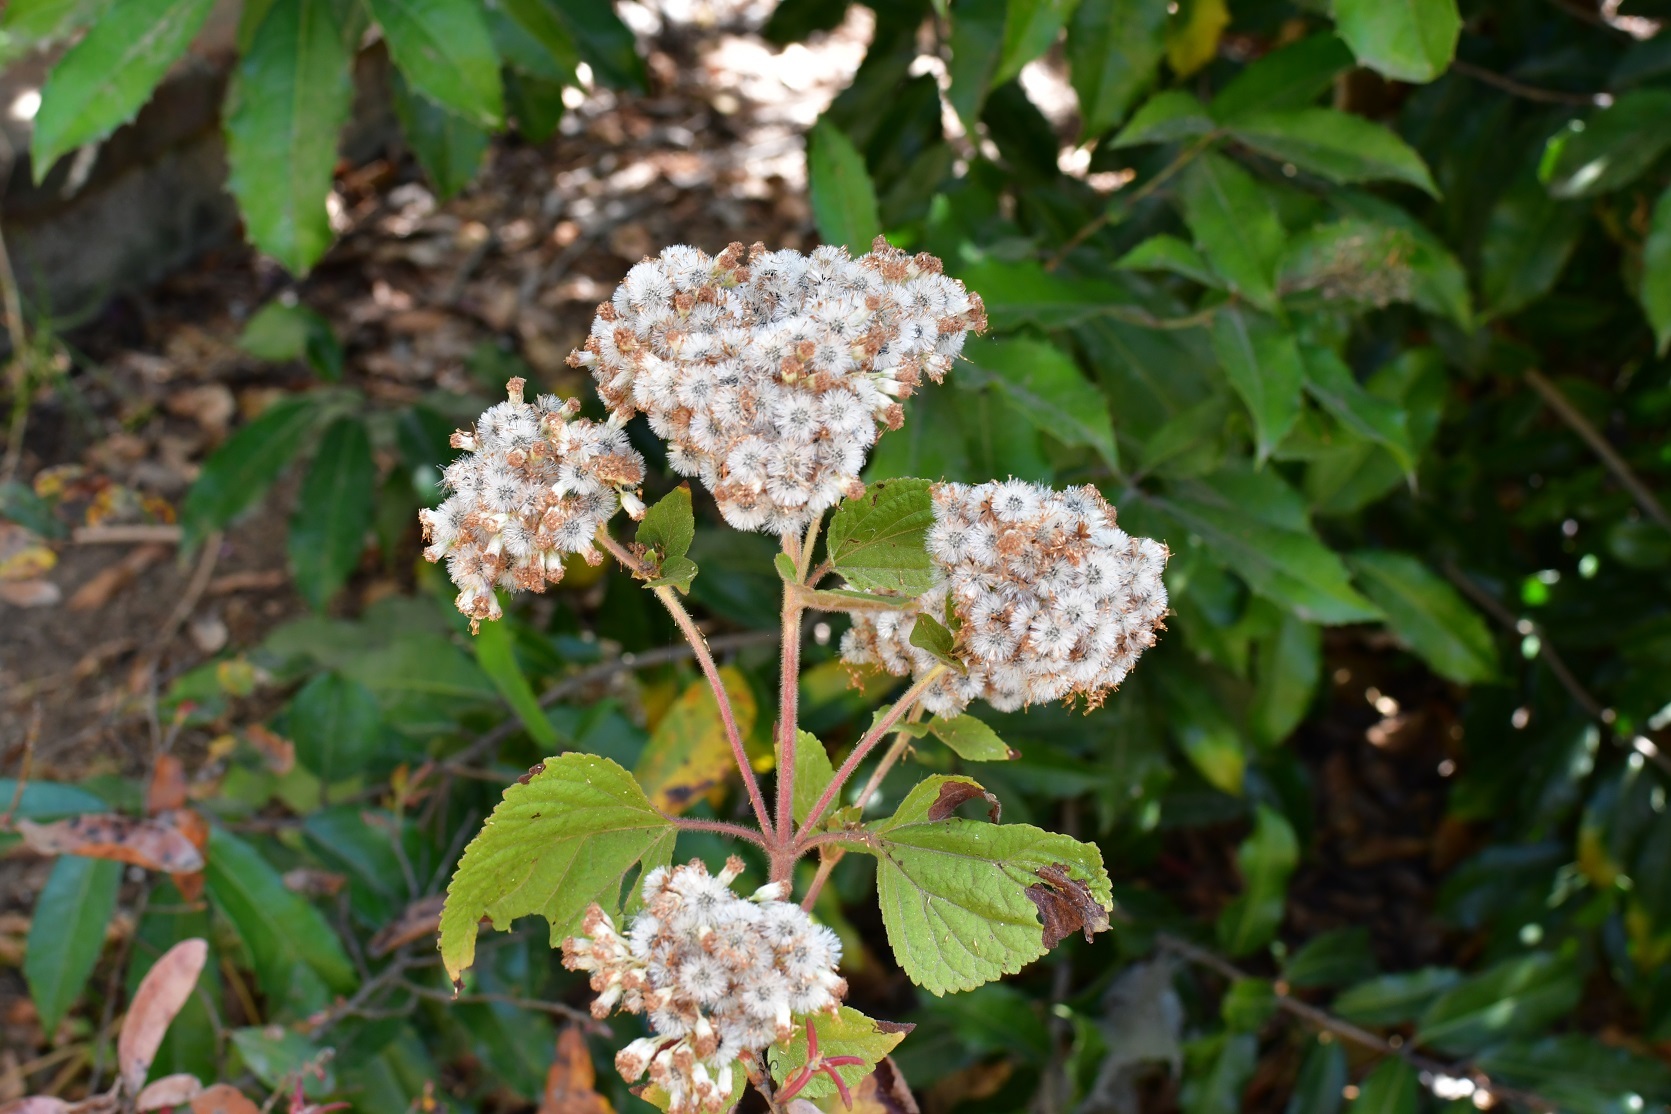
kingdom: Plantae
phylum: Tracheophyta
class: Magnoliopsida
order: Asterales
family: Asteraceae
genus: Ageratina
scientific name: Ageratina adenophora
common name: Sticky snakeroot
